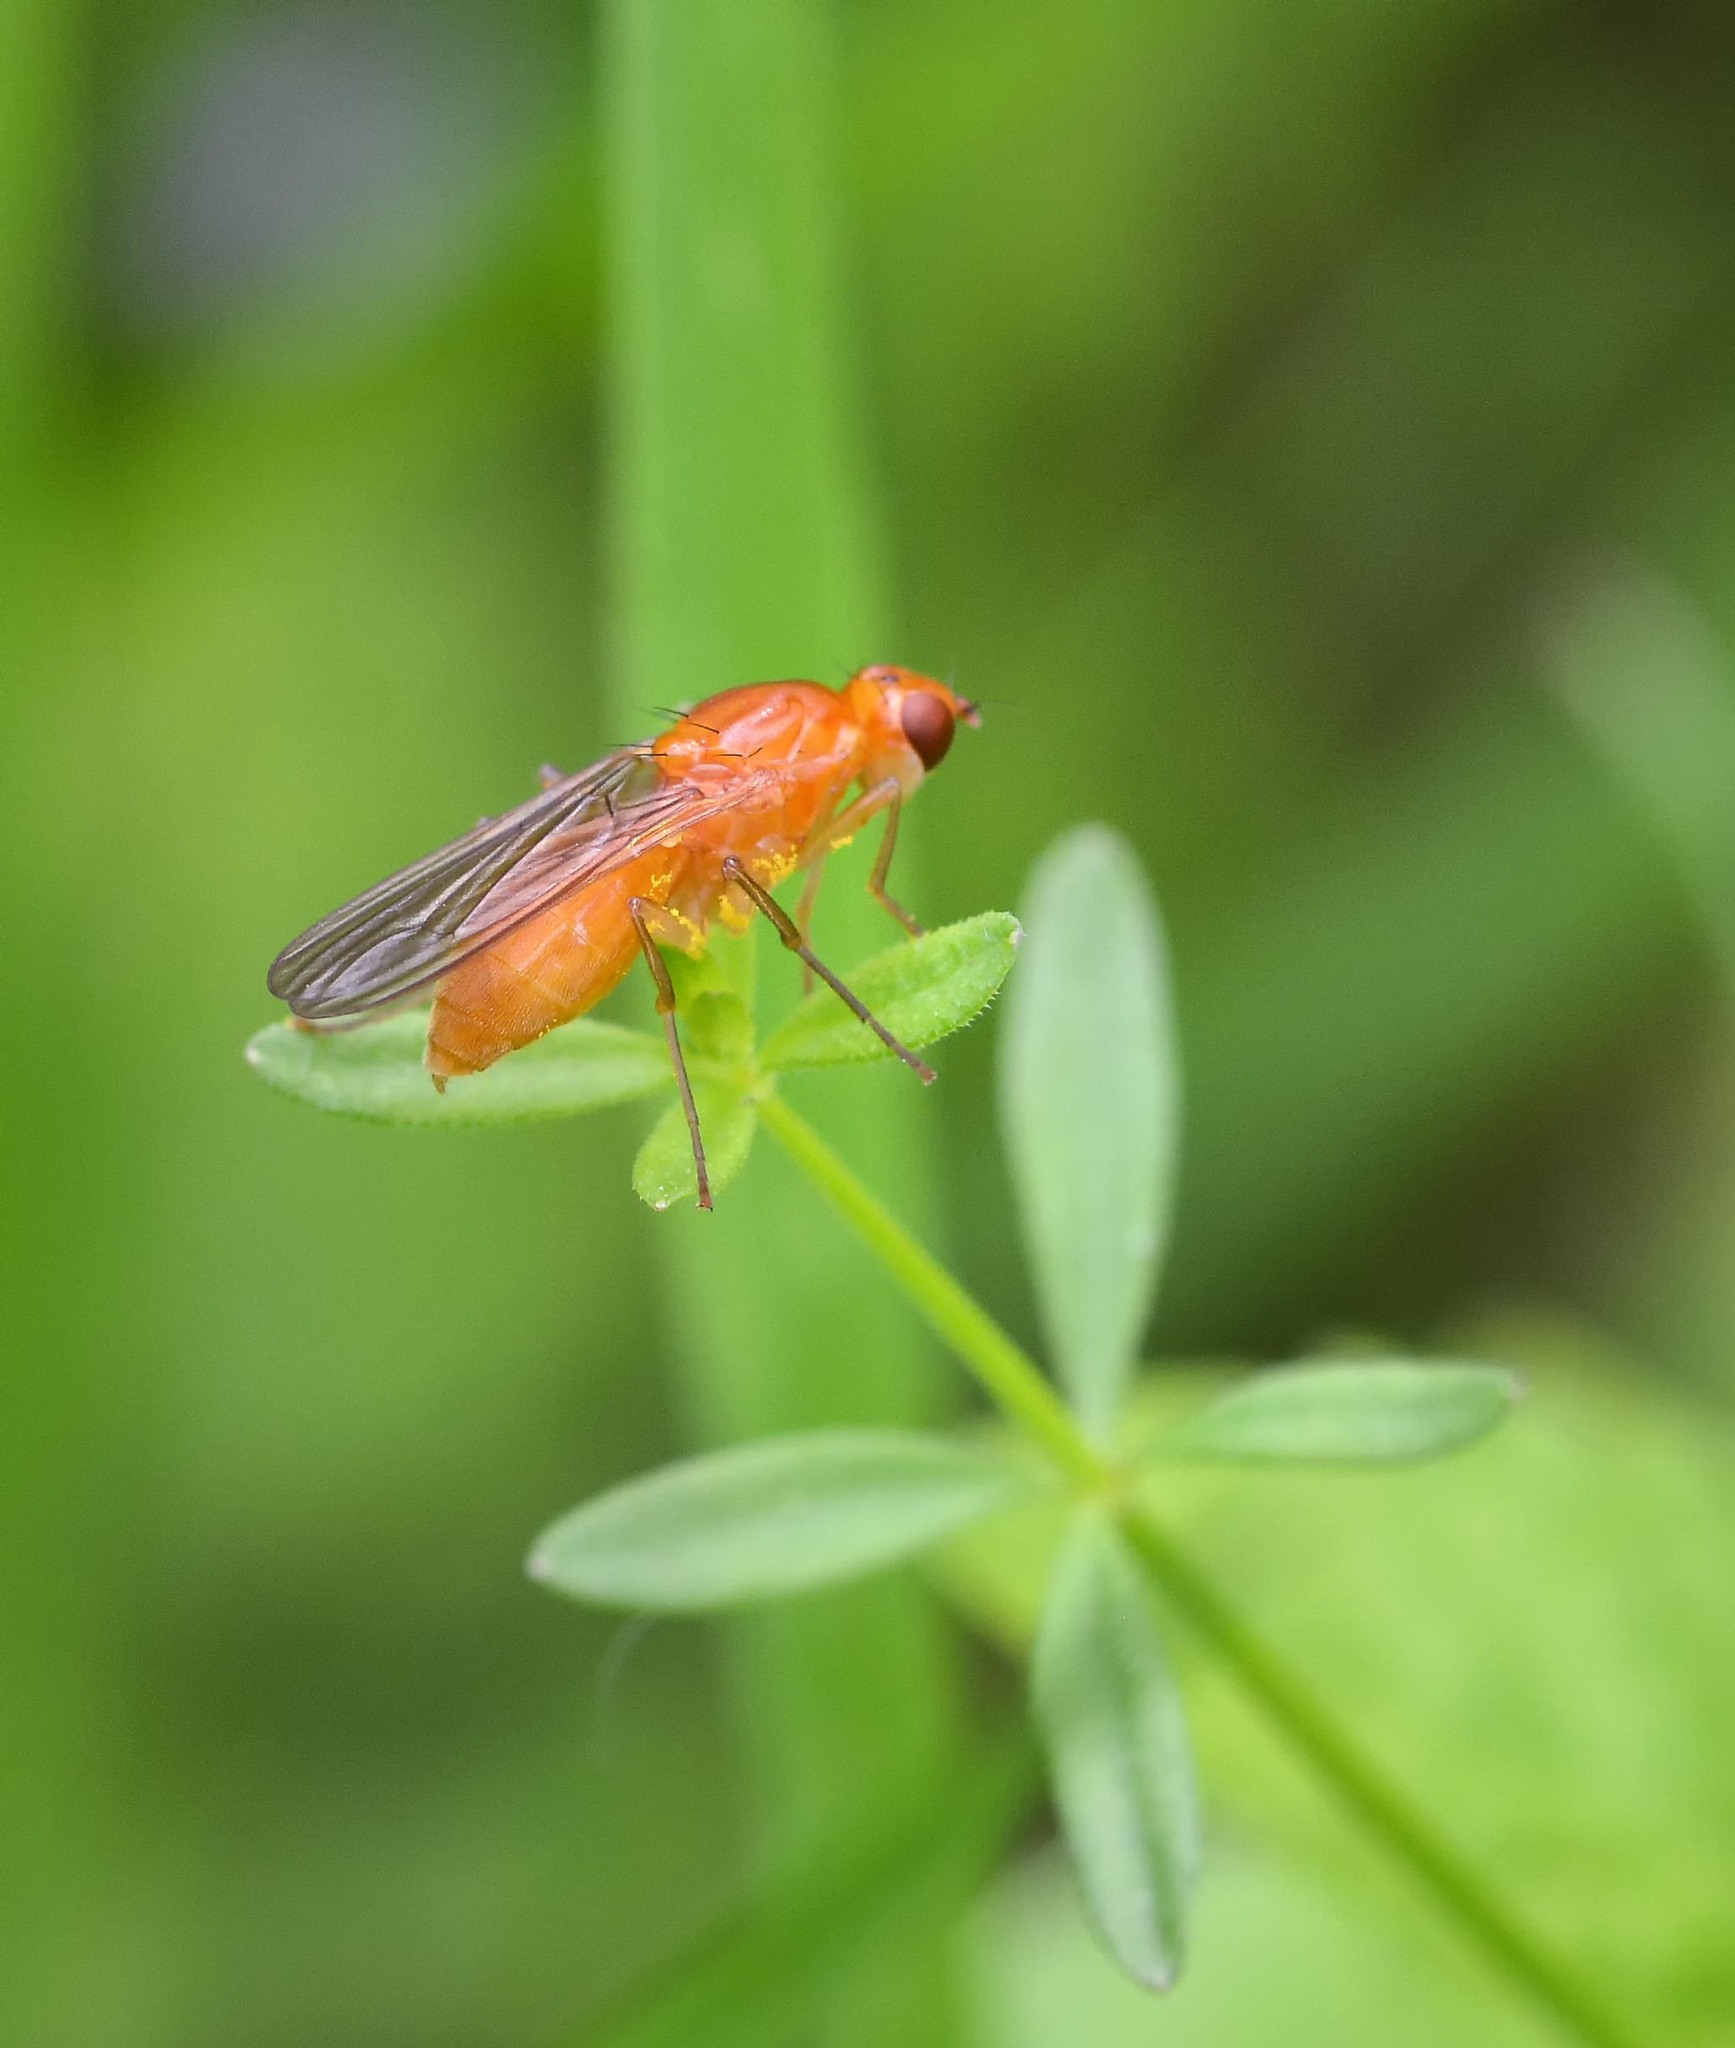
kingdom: Animalia
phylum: Arthropoda
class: Insecta
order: Diptera
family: Psilidae
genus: Psila
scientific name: Psila fimetaria
